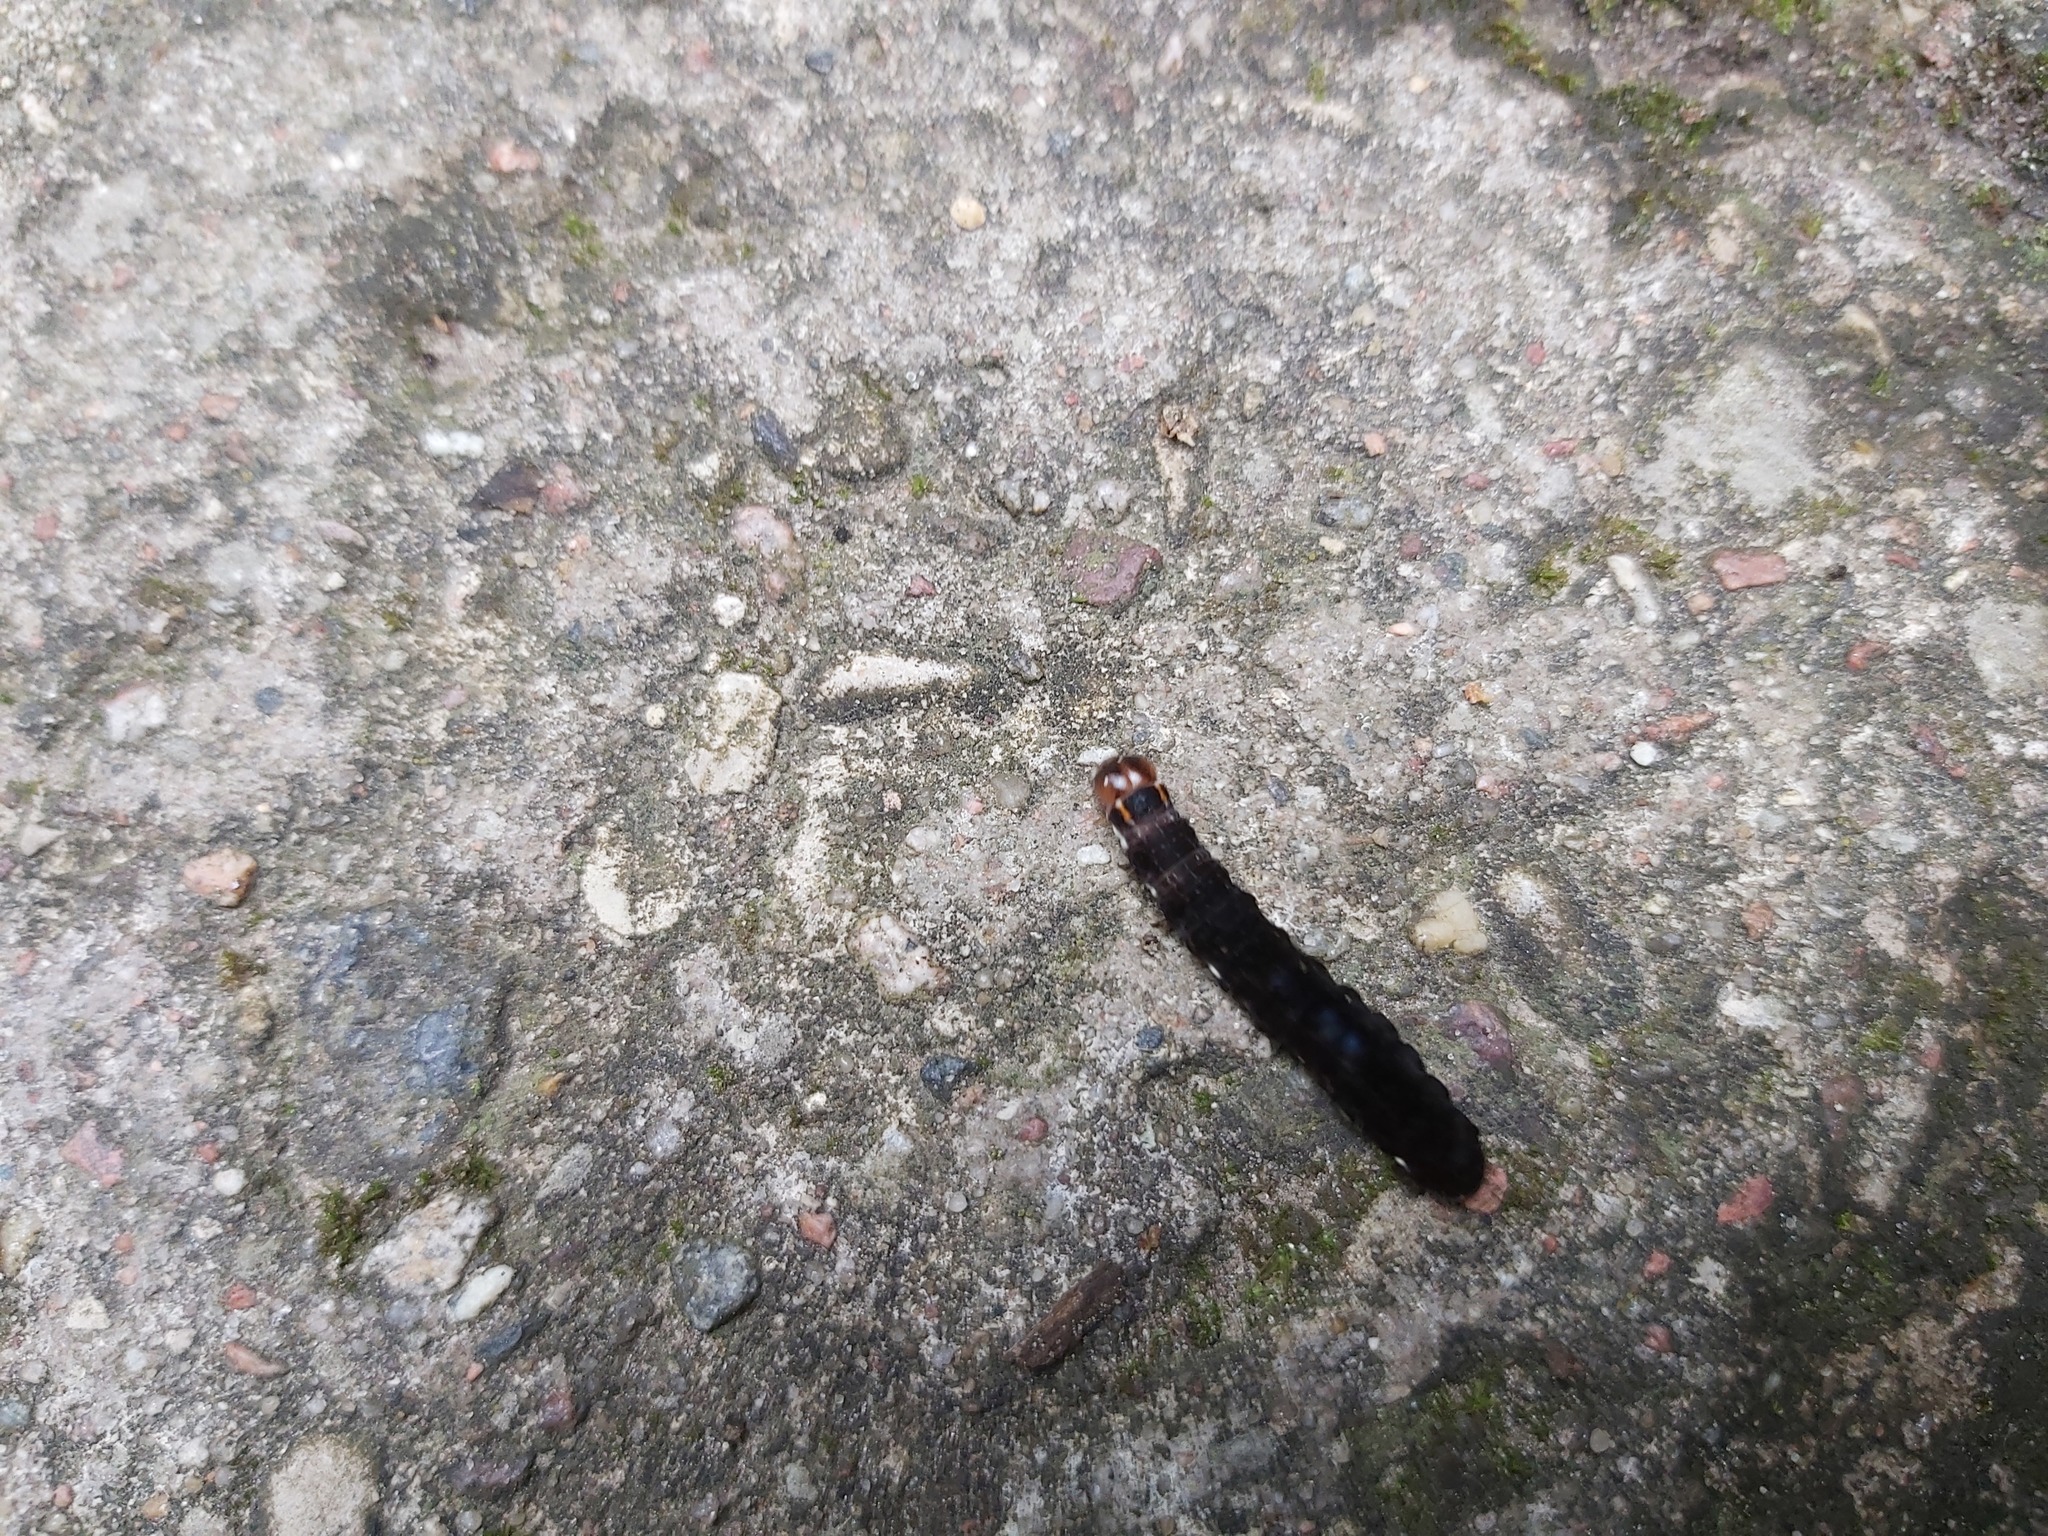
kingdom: Animalia
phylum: Arthropoda
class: Insecta
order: Lepidoptera
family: Noctuidae
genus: Eupsilia
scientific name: Eupsilia transversa
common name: Satellite
